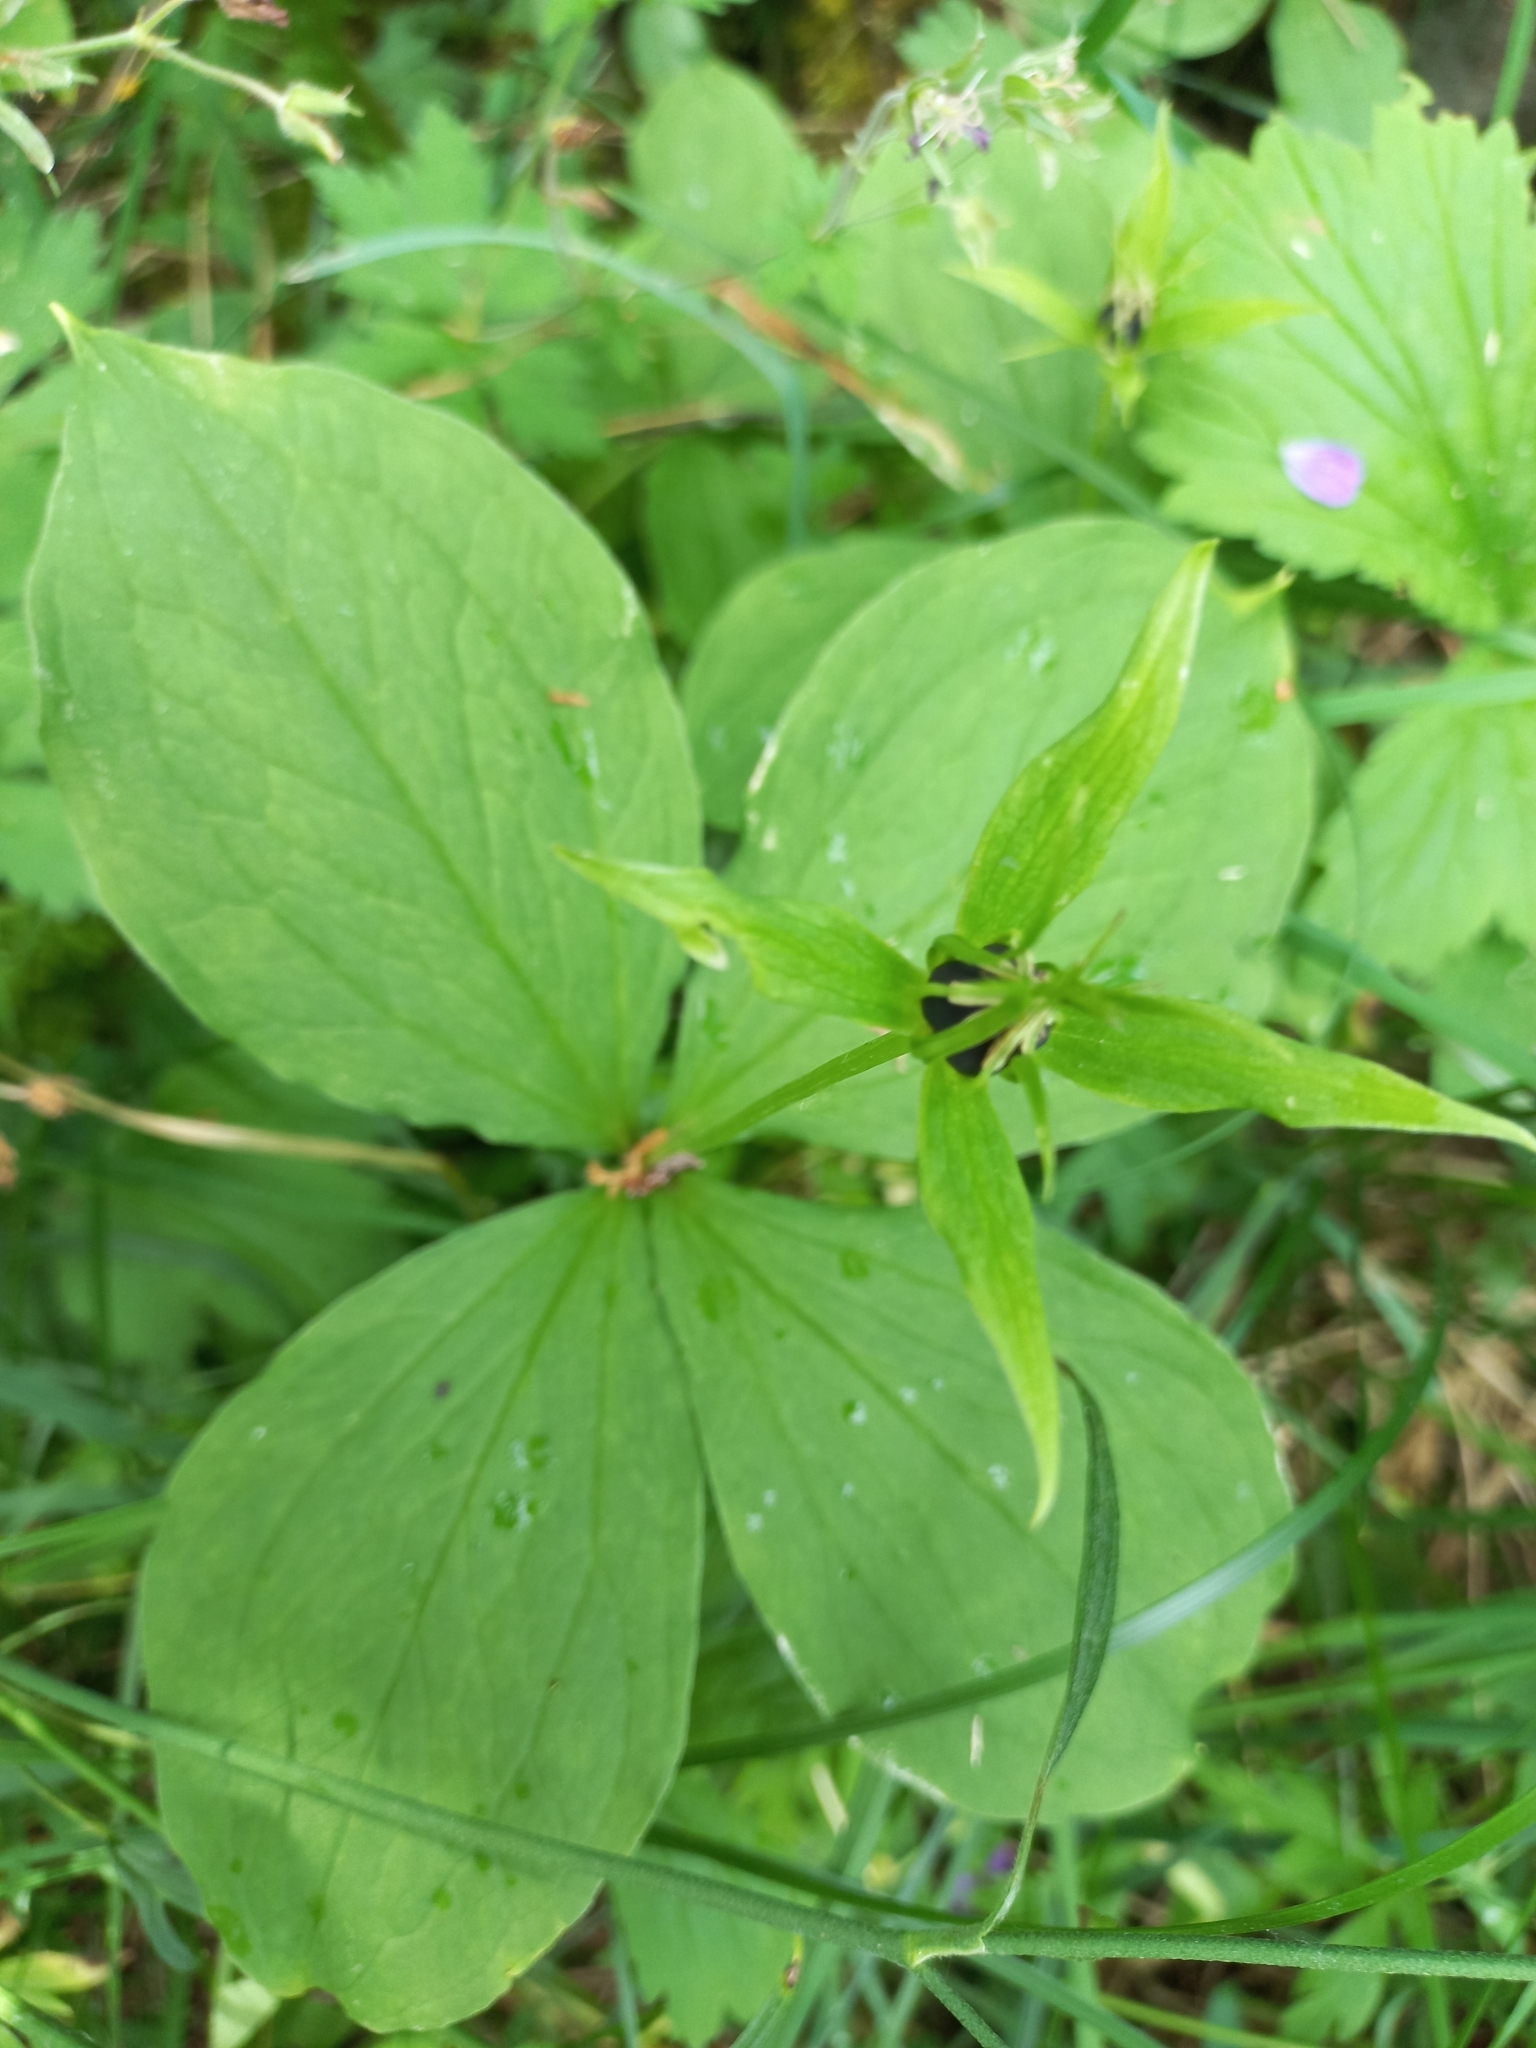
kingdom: Plantae
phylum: Tracheophyta
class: Liliopsida
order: Liliales
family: Melanthiaceae
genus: Paris
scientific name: Paris quadrifolia
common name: Herb-paris
